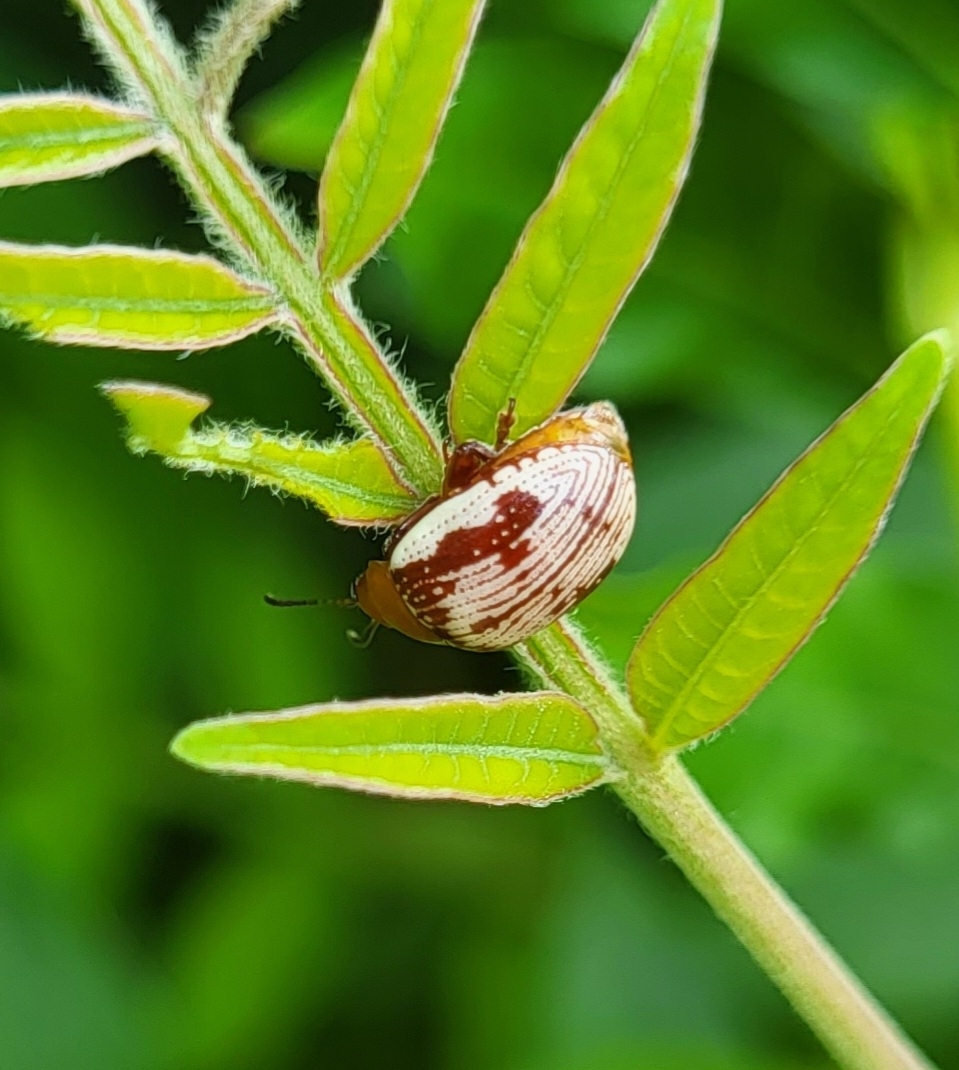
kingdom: Animalia
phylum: Arthropoda
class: Insecta
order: Coleoptera
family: Chrysomelidae
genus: Blepharida
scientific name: Blepharida rhois
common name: Sumac flea beetle
